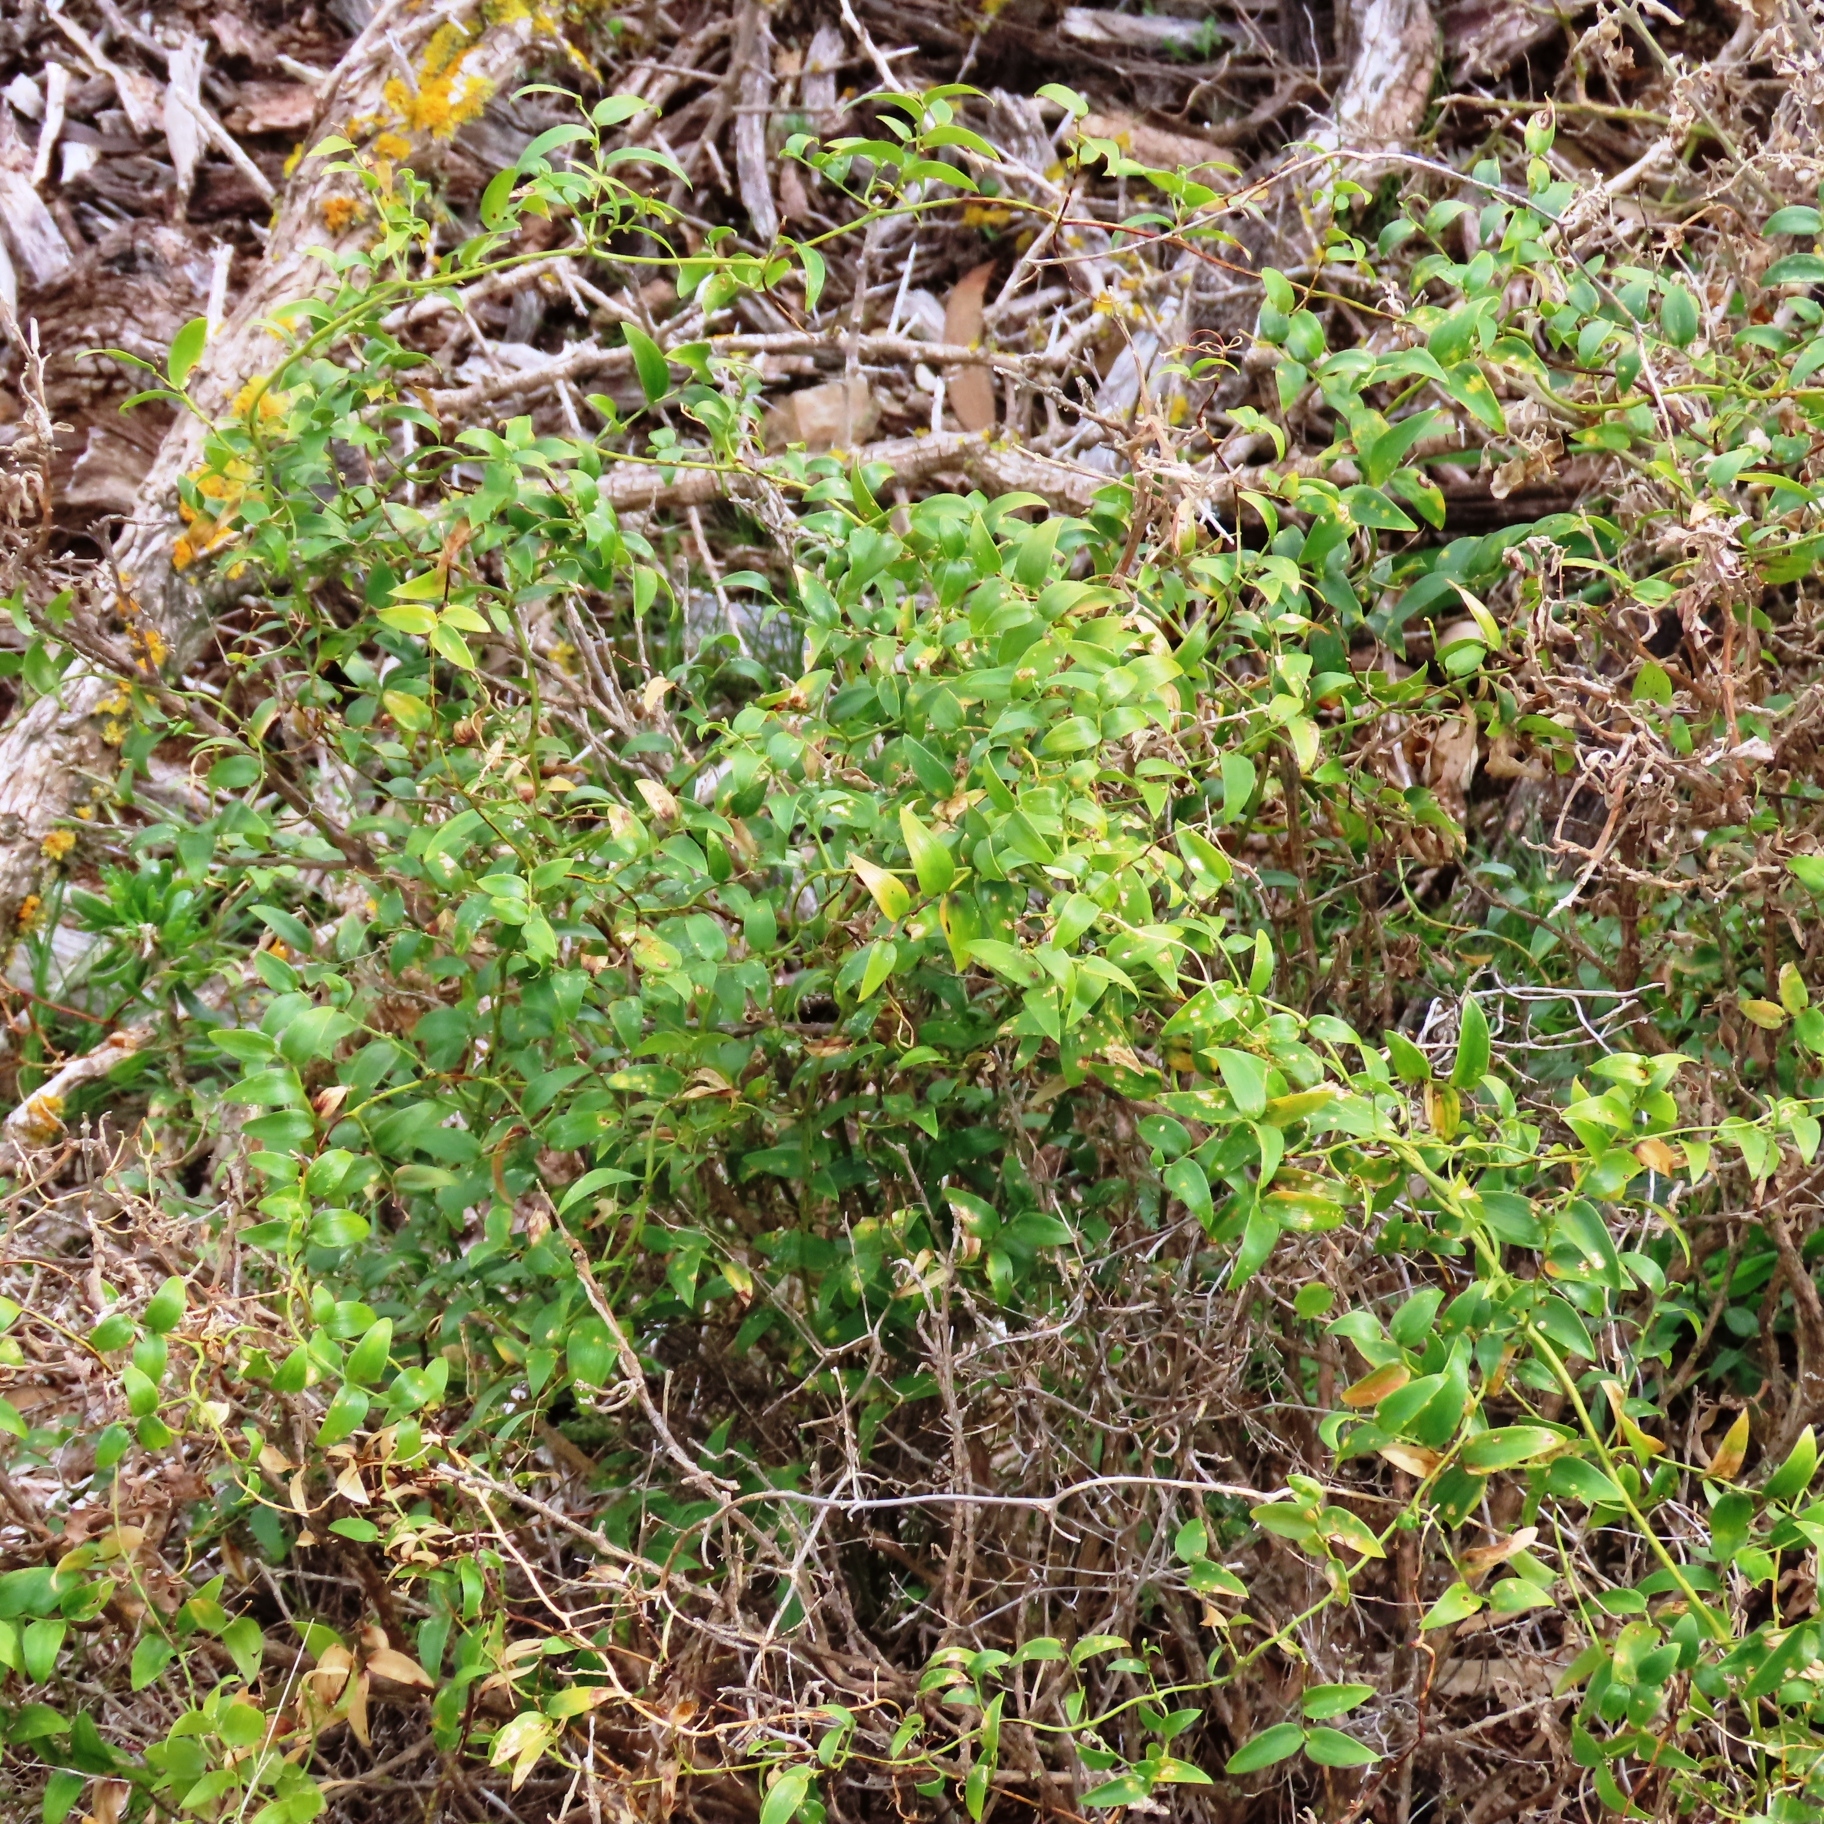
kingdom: Plantae
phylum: Tracheophyta
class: Liliopsida
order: Asparagales
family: Asparagaceae
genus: Asparagus
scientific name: Asparagus asparagoides
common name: African asparagus fern
